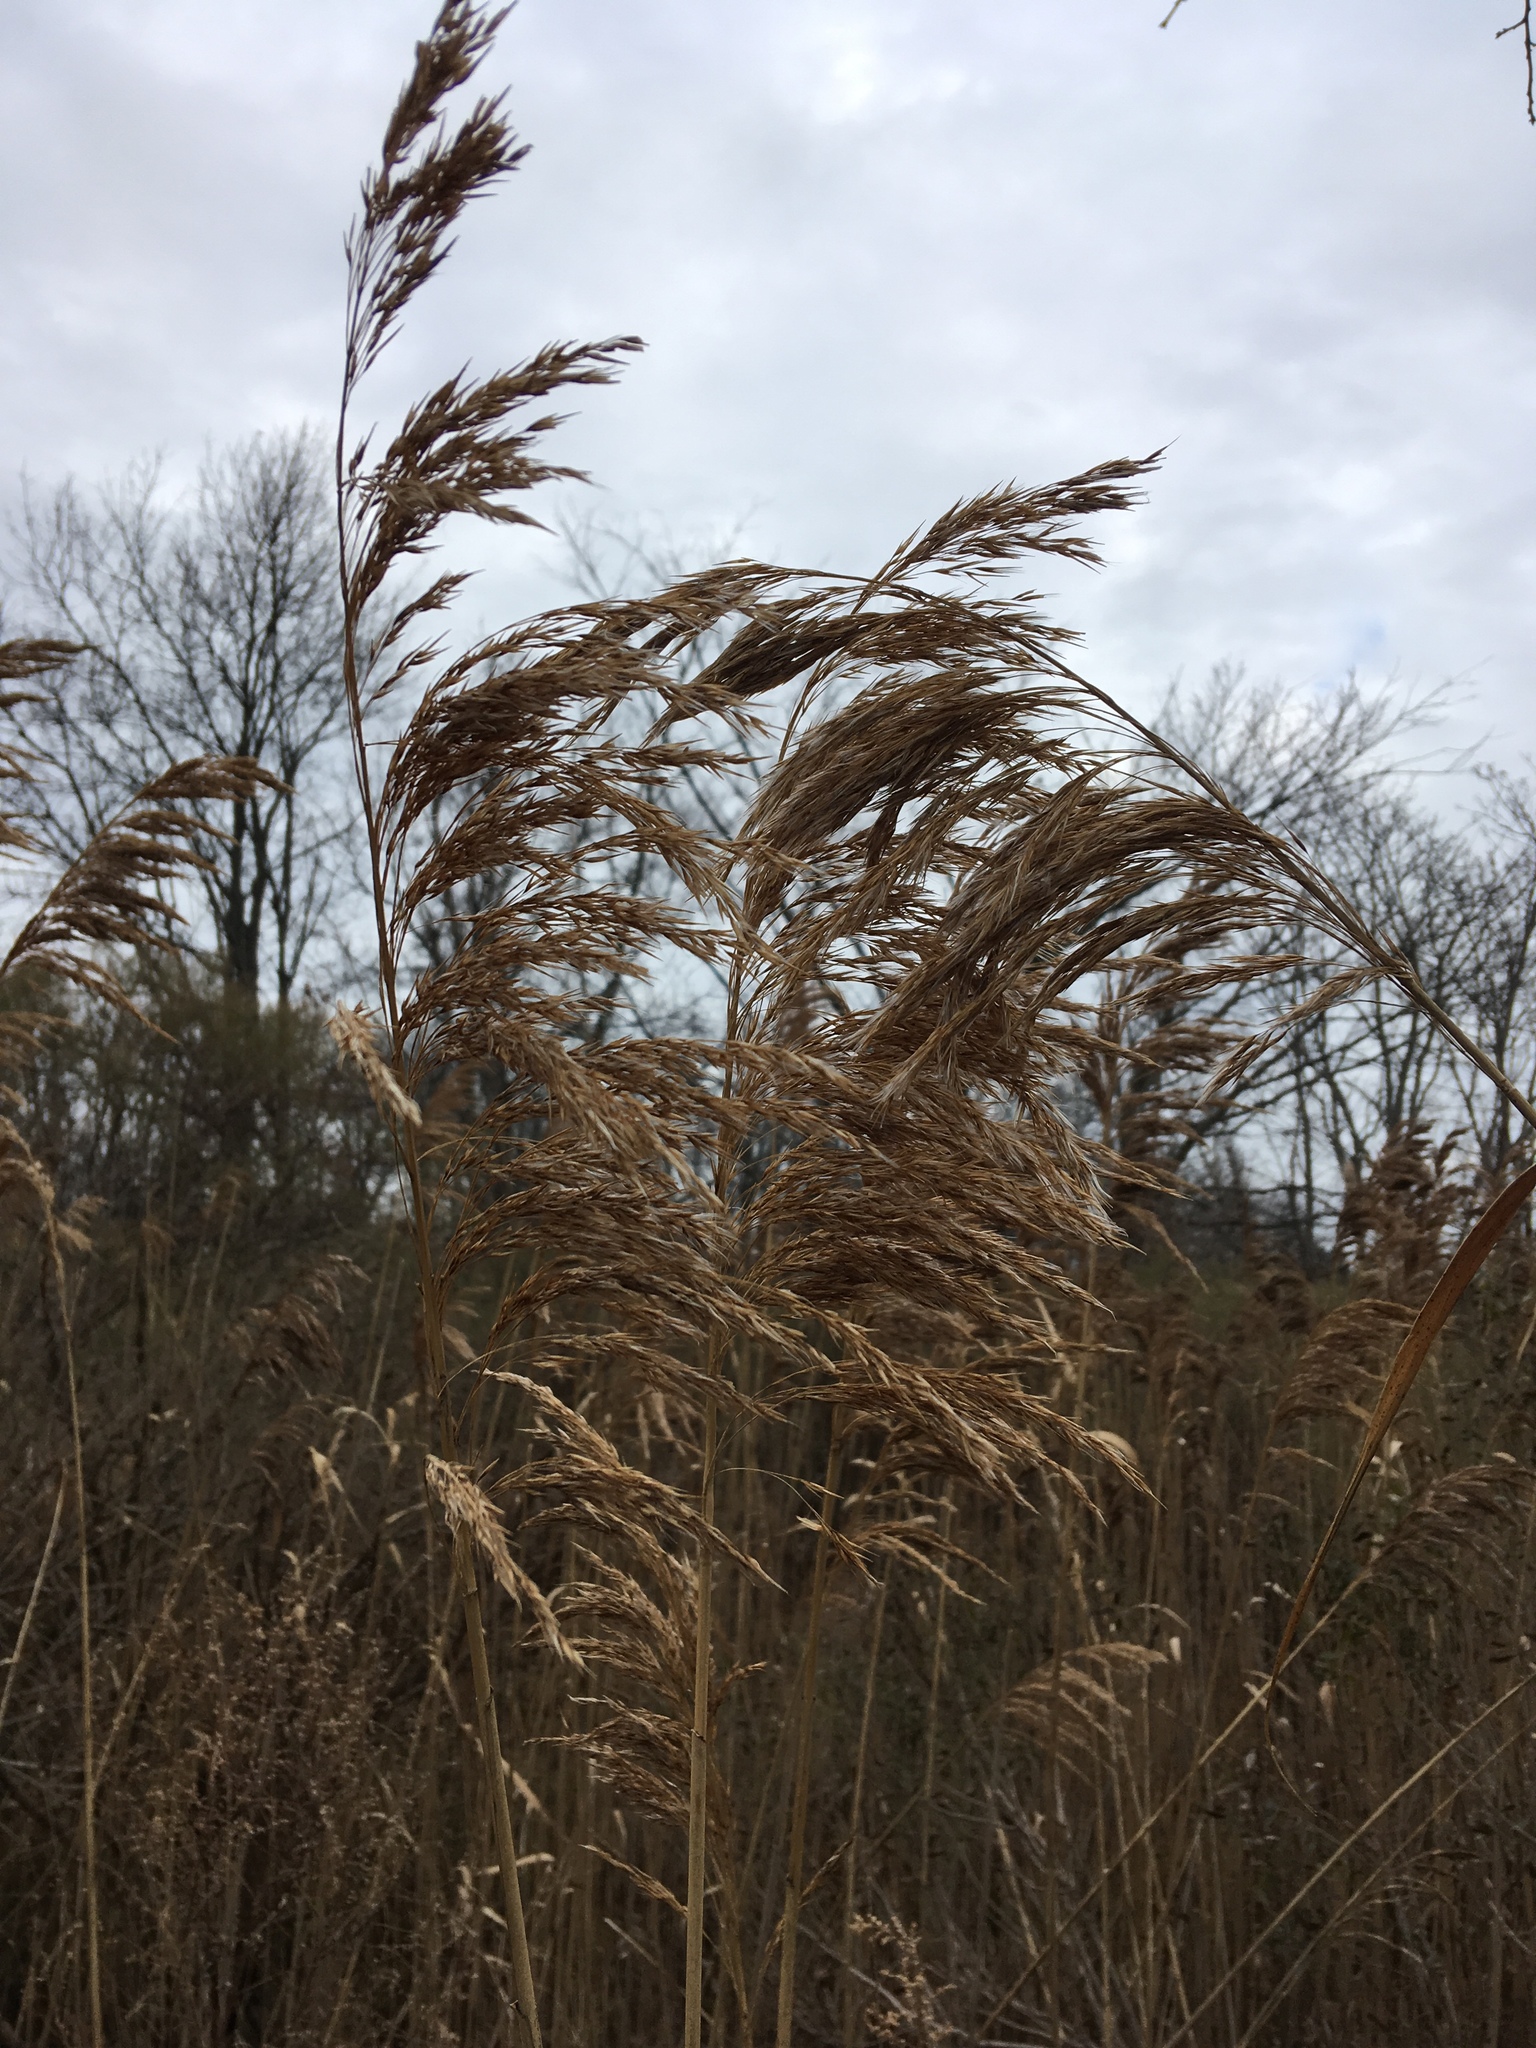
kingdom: Plantae
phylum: Tracheophyta
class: Liliopsida
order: Poales
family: Poaceae
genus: Phragmites
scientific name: Phragmites australis
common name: Common reed
